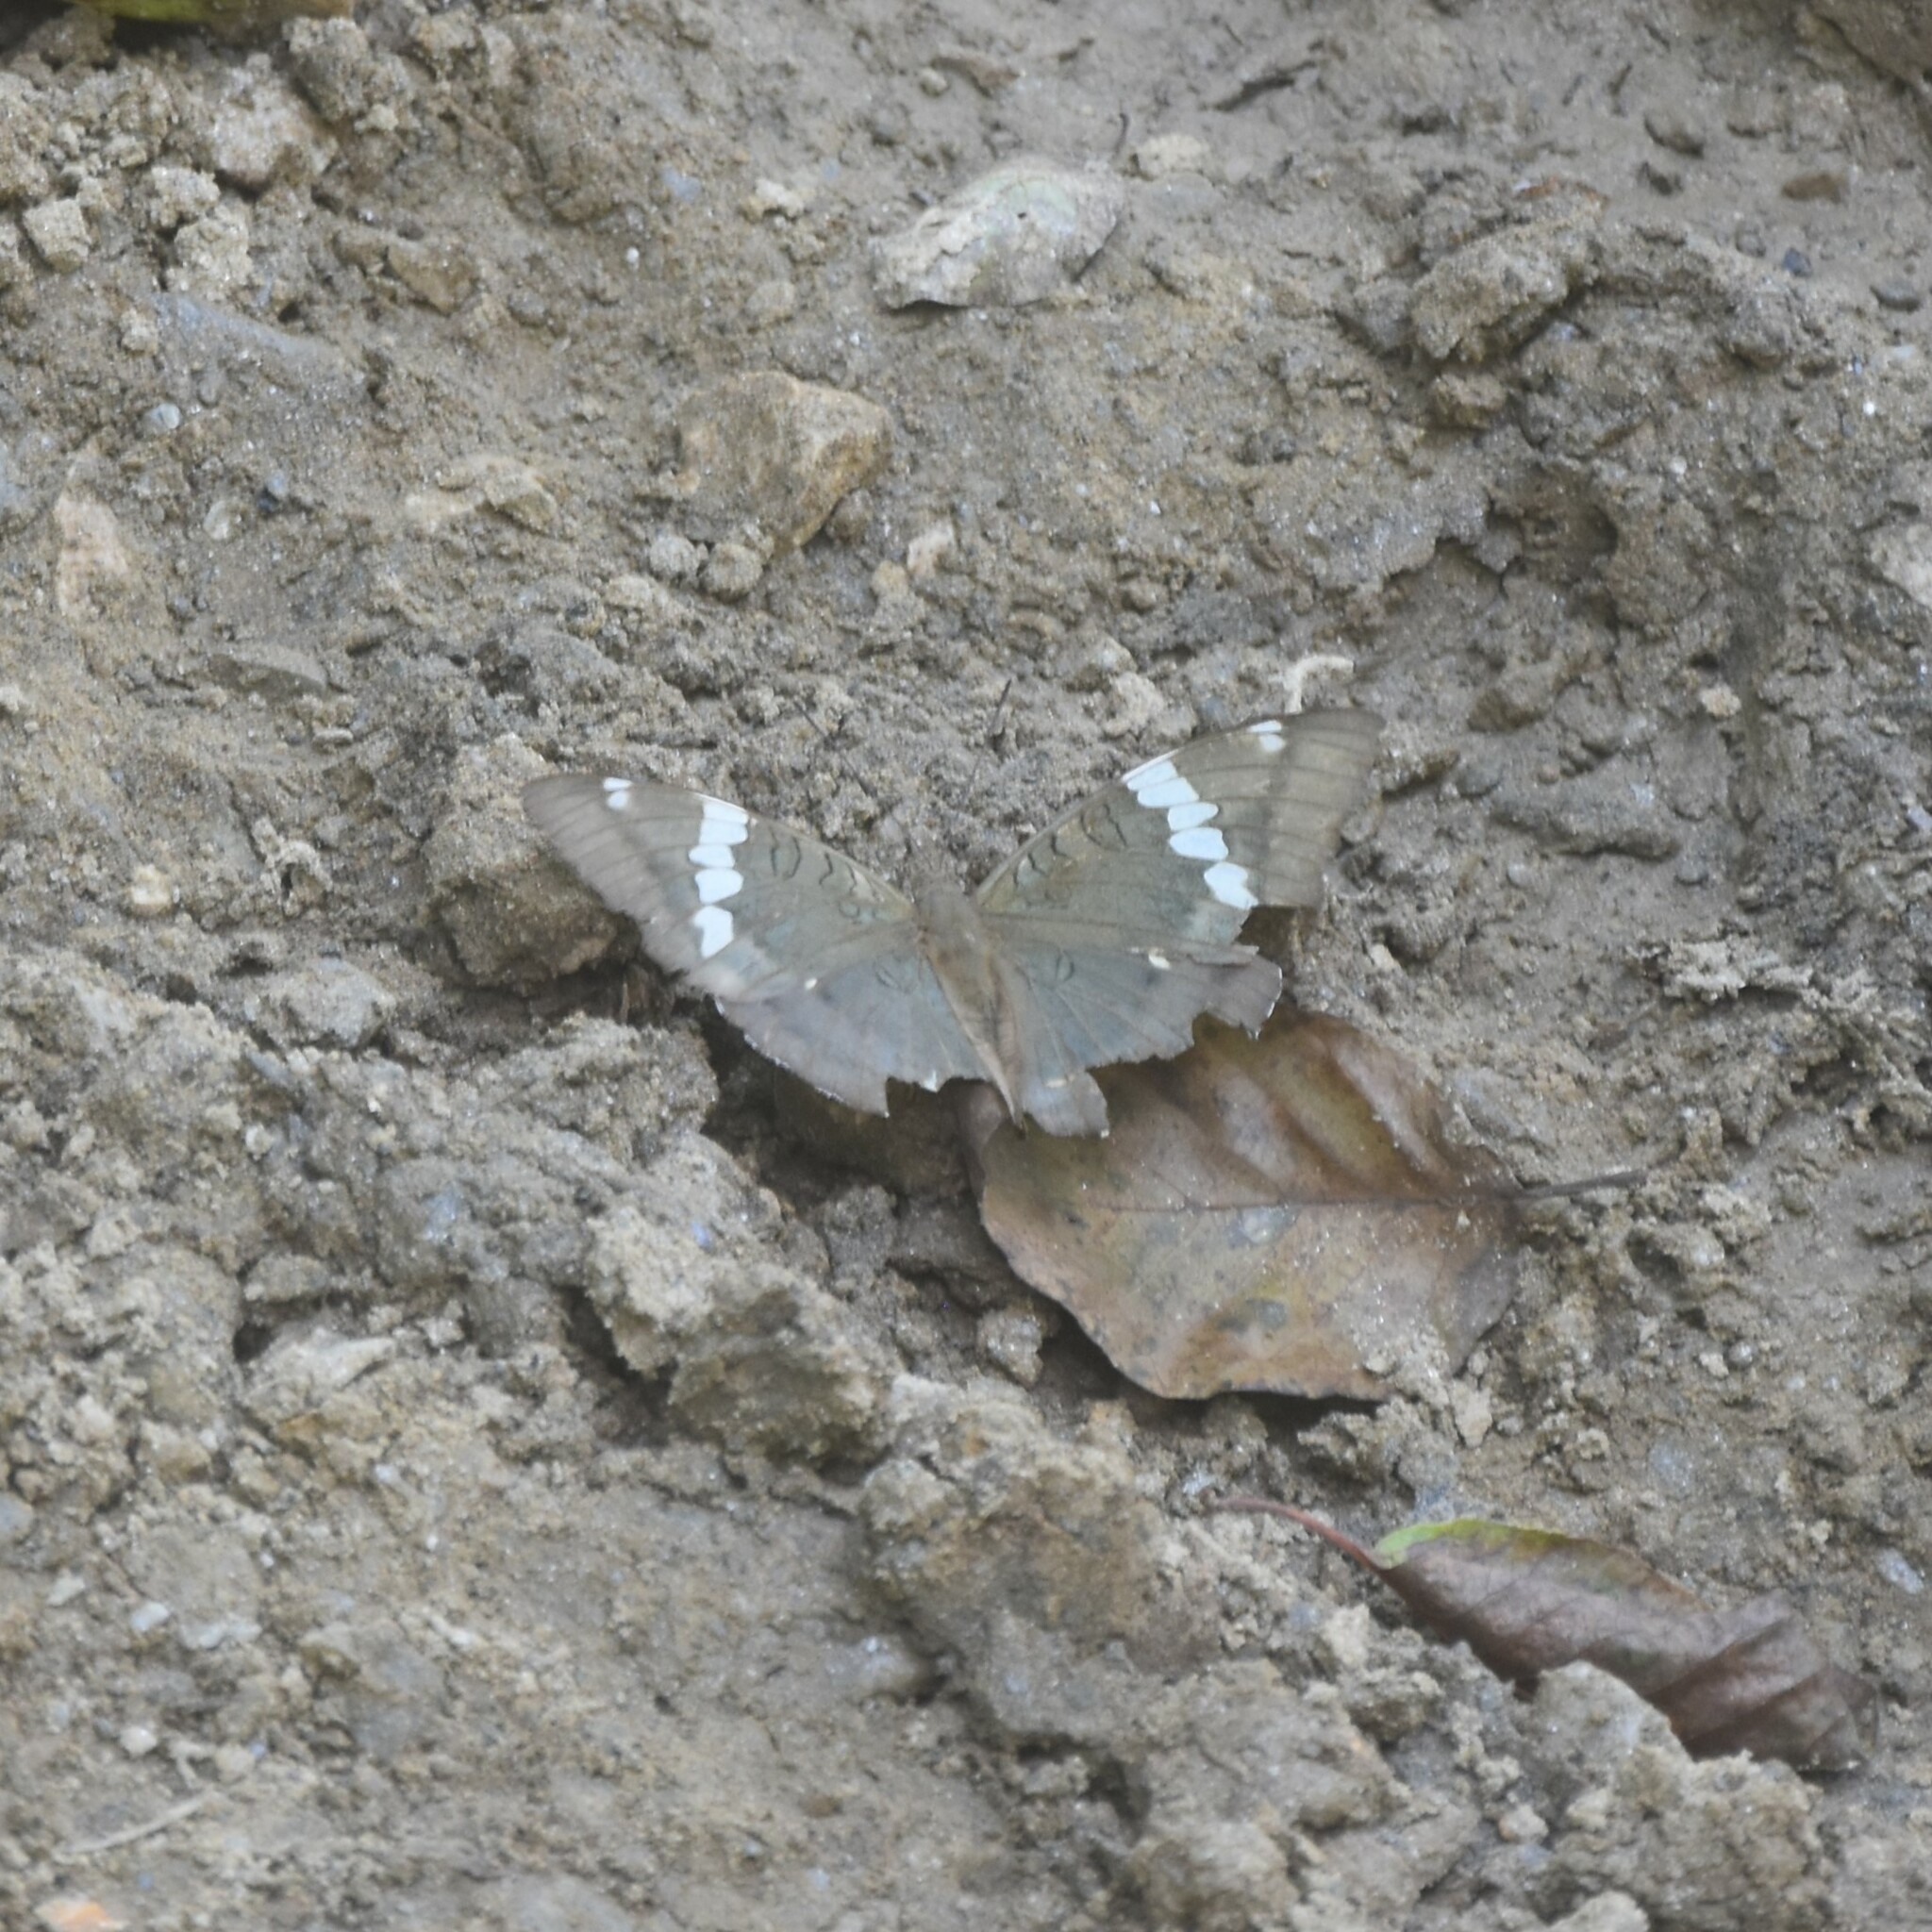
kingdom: Animalia
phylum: Arthropoda
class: Insecta
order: Lepidoptera
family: Nymphalidae
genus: Euthalia
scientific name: Euthalia patala
